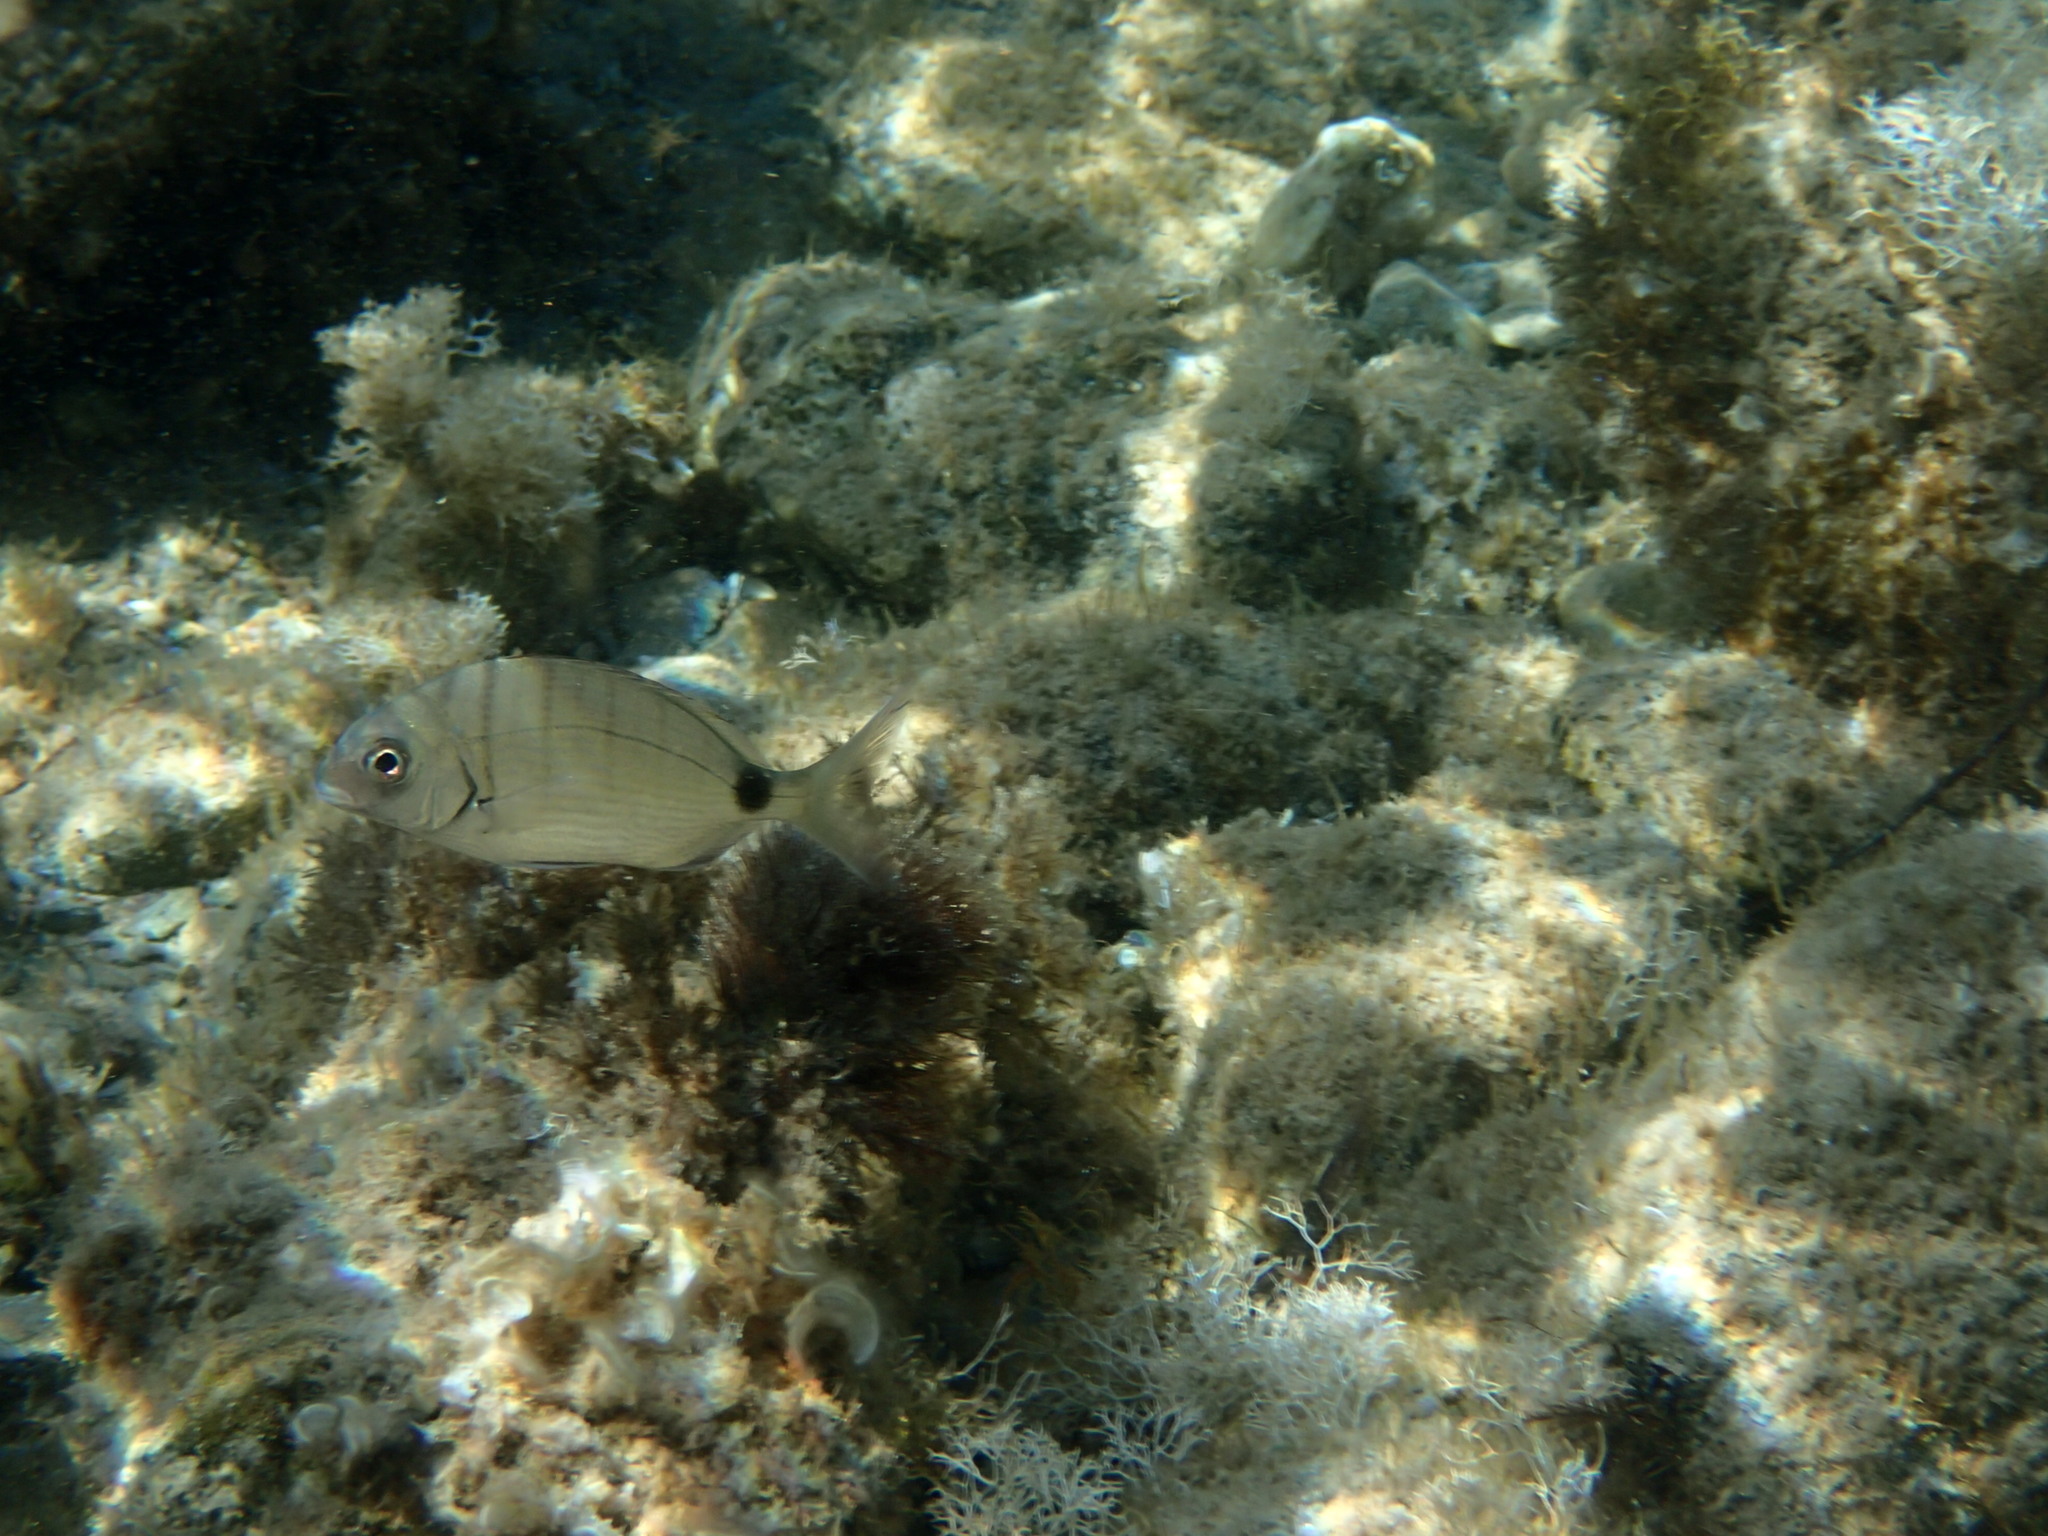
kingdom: Animalia
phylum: Chordata
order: Perciformes
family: Sparidae
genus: Diplodus
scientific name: Diplodus sargus
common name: White seabream
